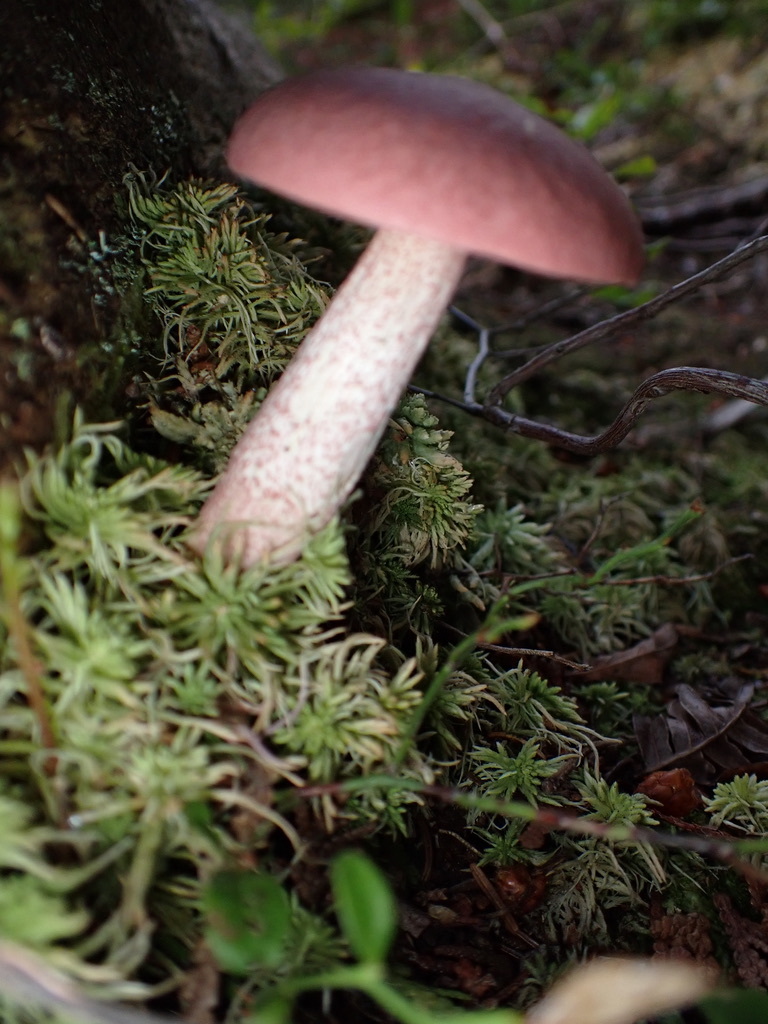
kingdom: Fungi
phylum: Basidiomycota
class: Agaricomycetes
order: Boletales
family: Boletaceae
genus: Harrya
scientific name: Harrya chromipes
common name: Chrome-footed bolete
